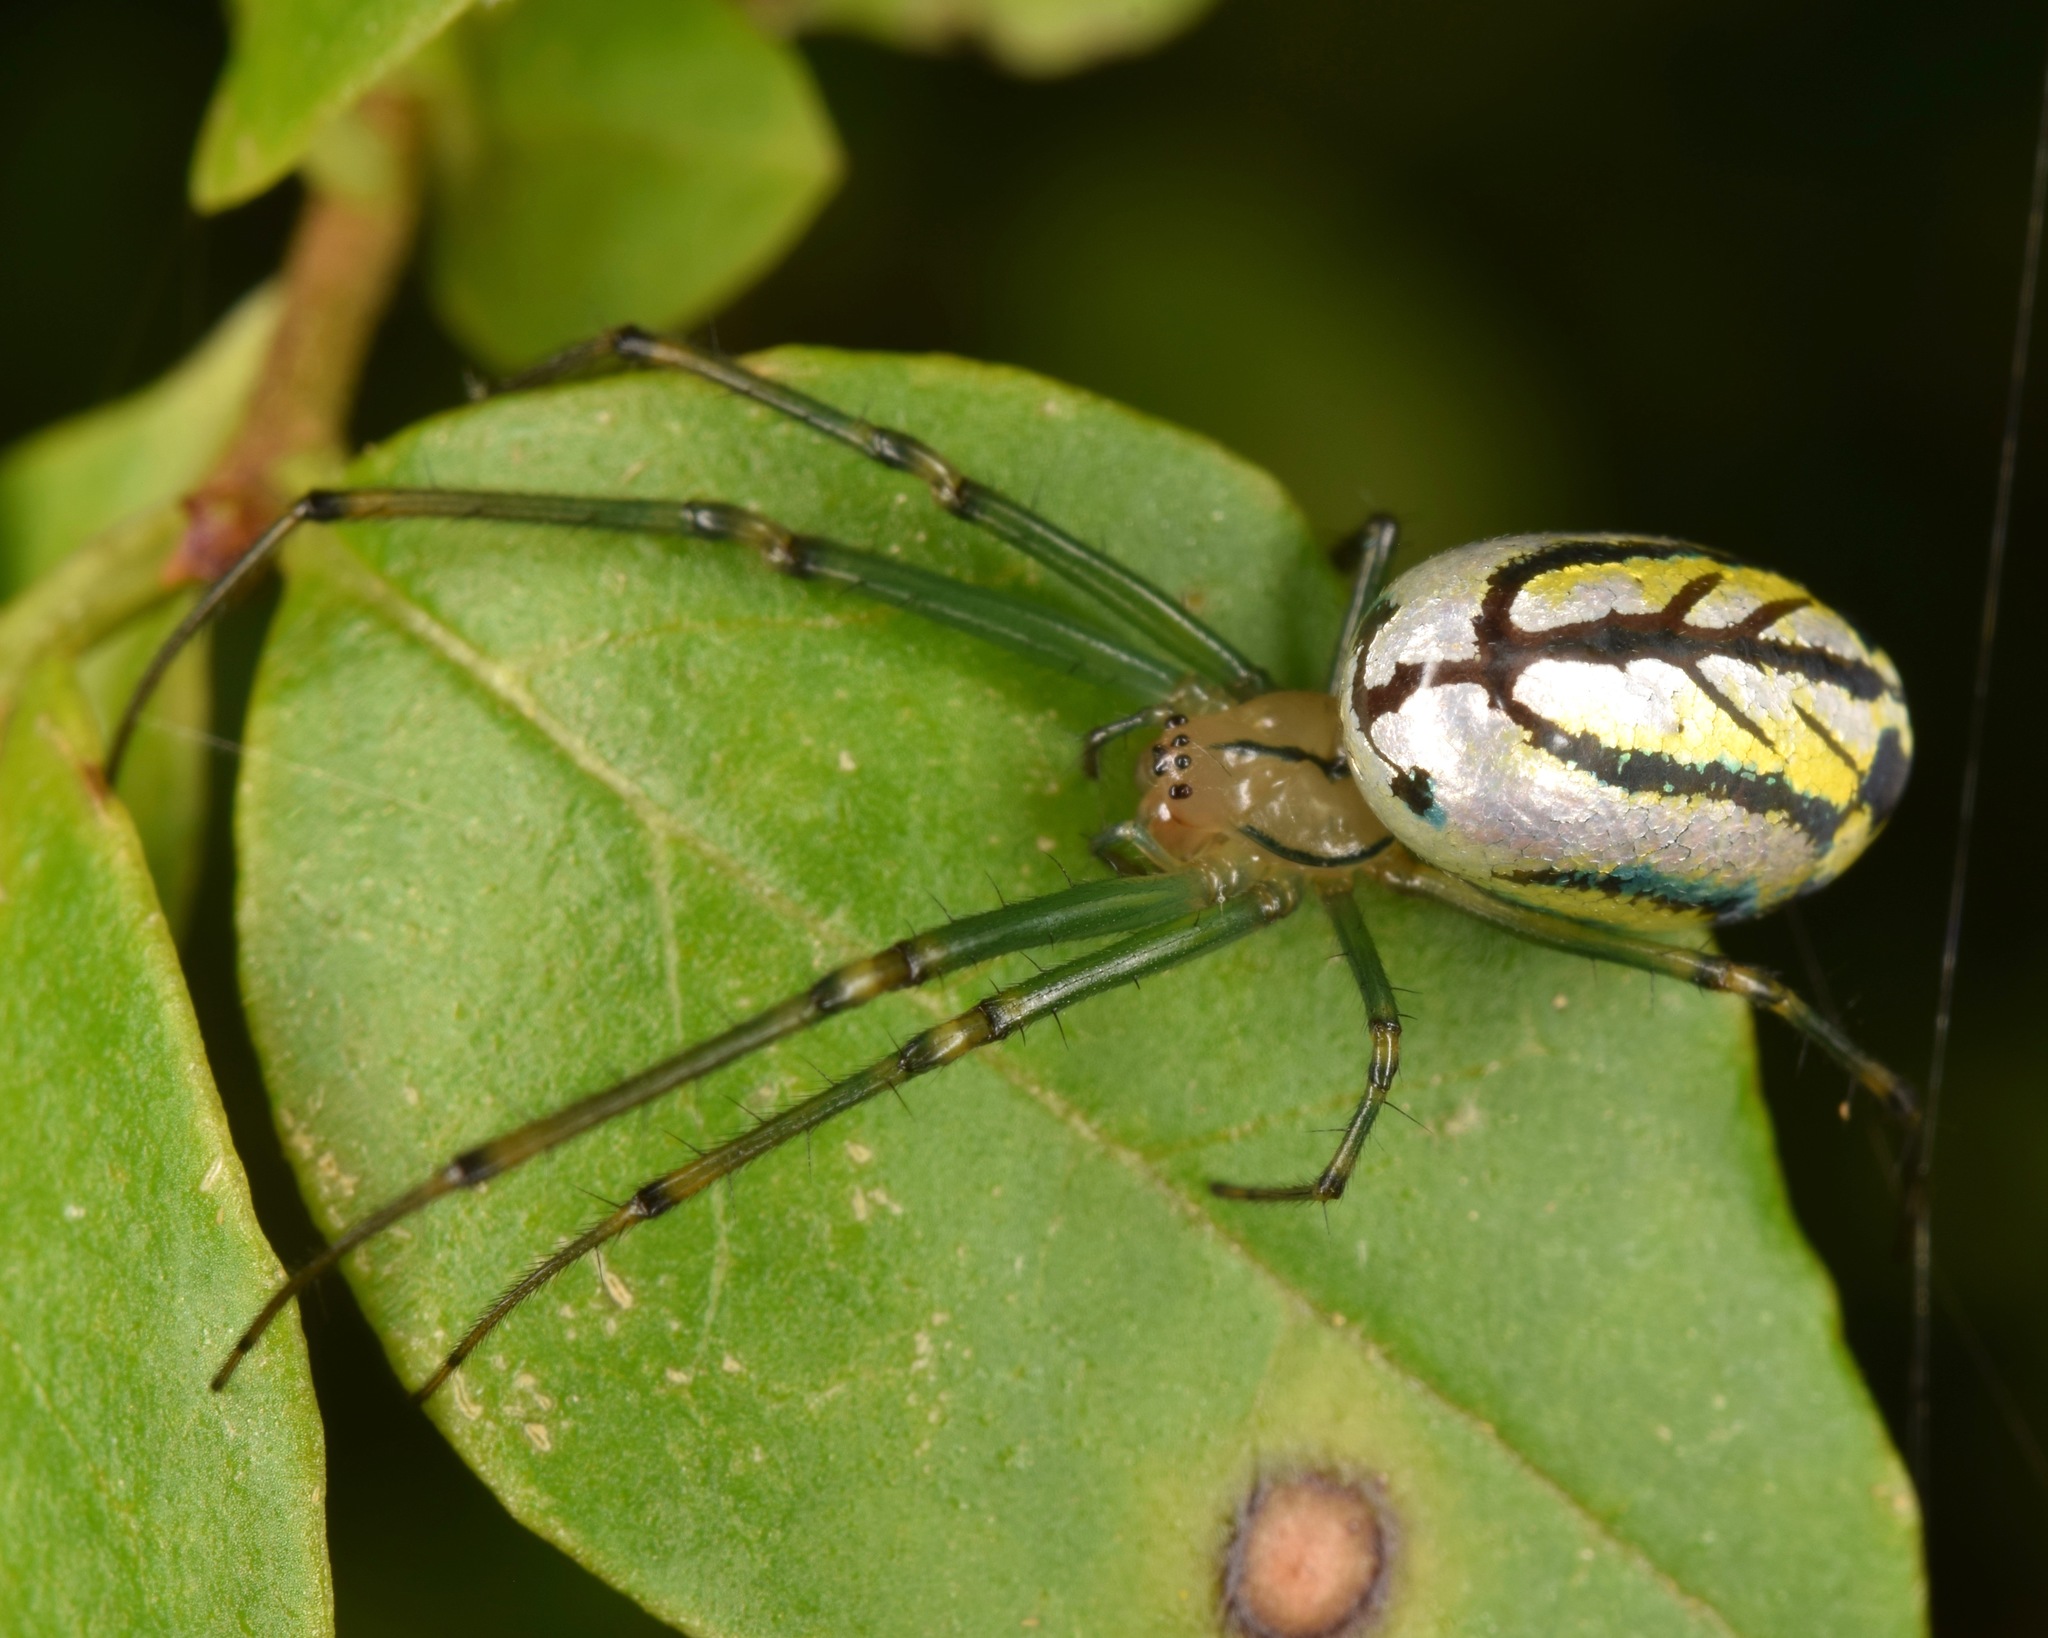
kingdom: Animalia
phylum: Arthropoda
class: Arachnida
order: Araneae
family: Tetragnathidae
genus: Leucauge
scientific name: Leucauge venusta
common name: Longjawed orb weavers
